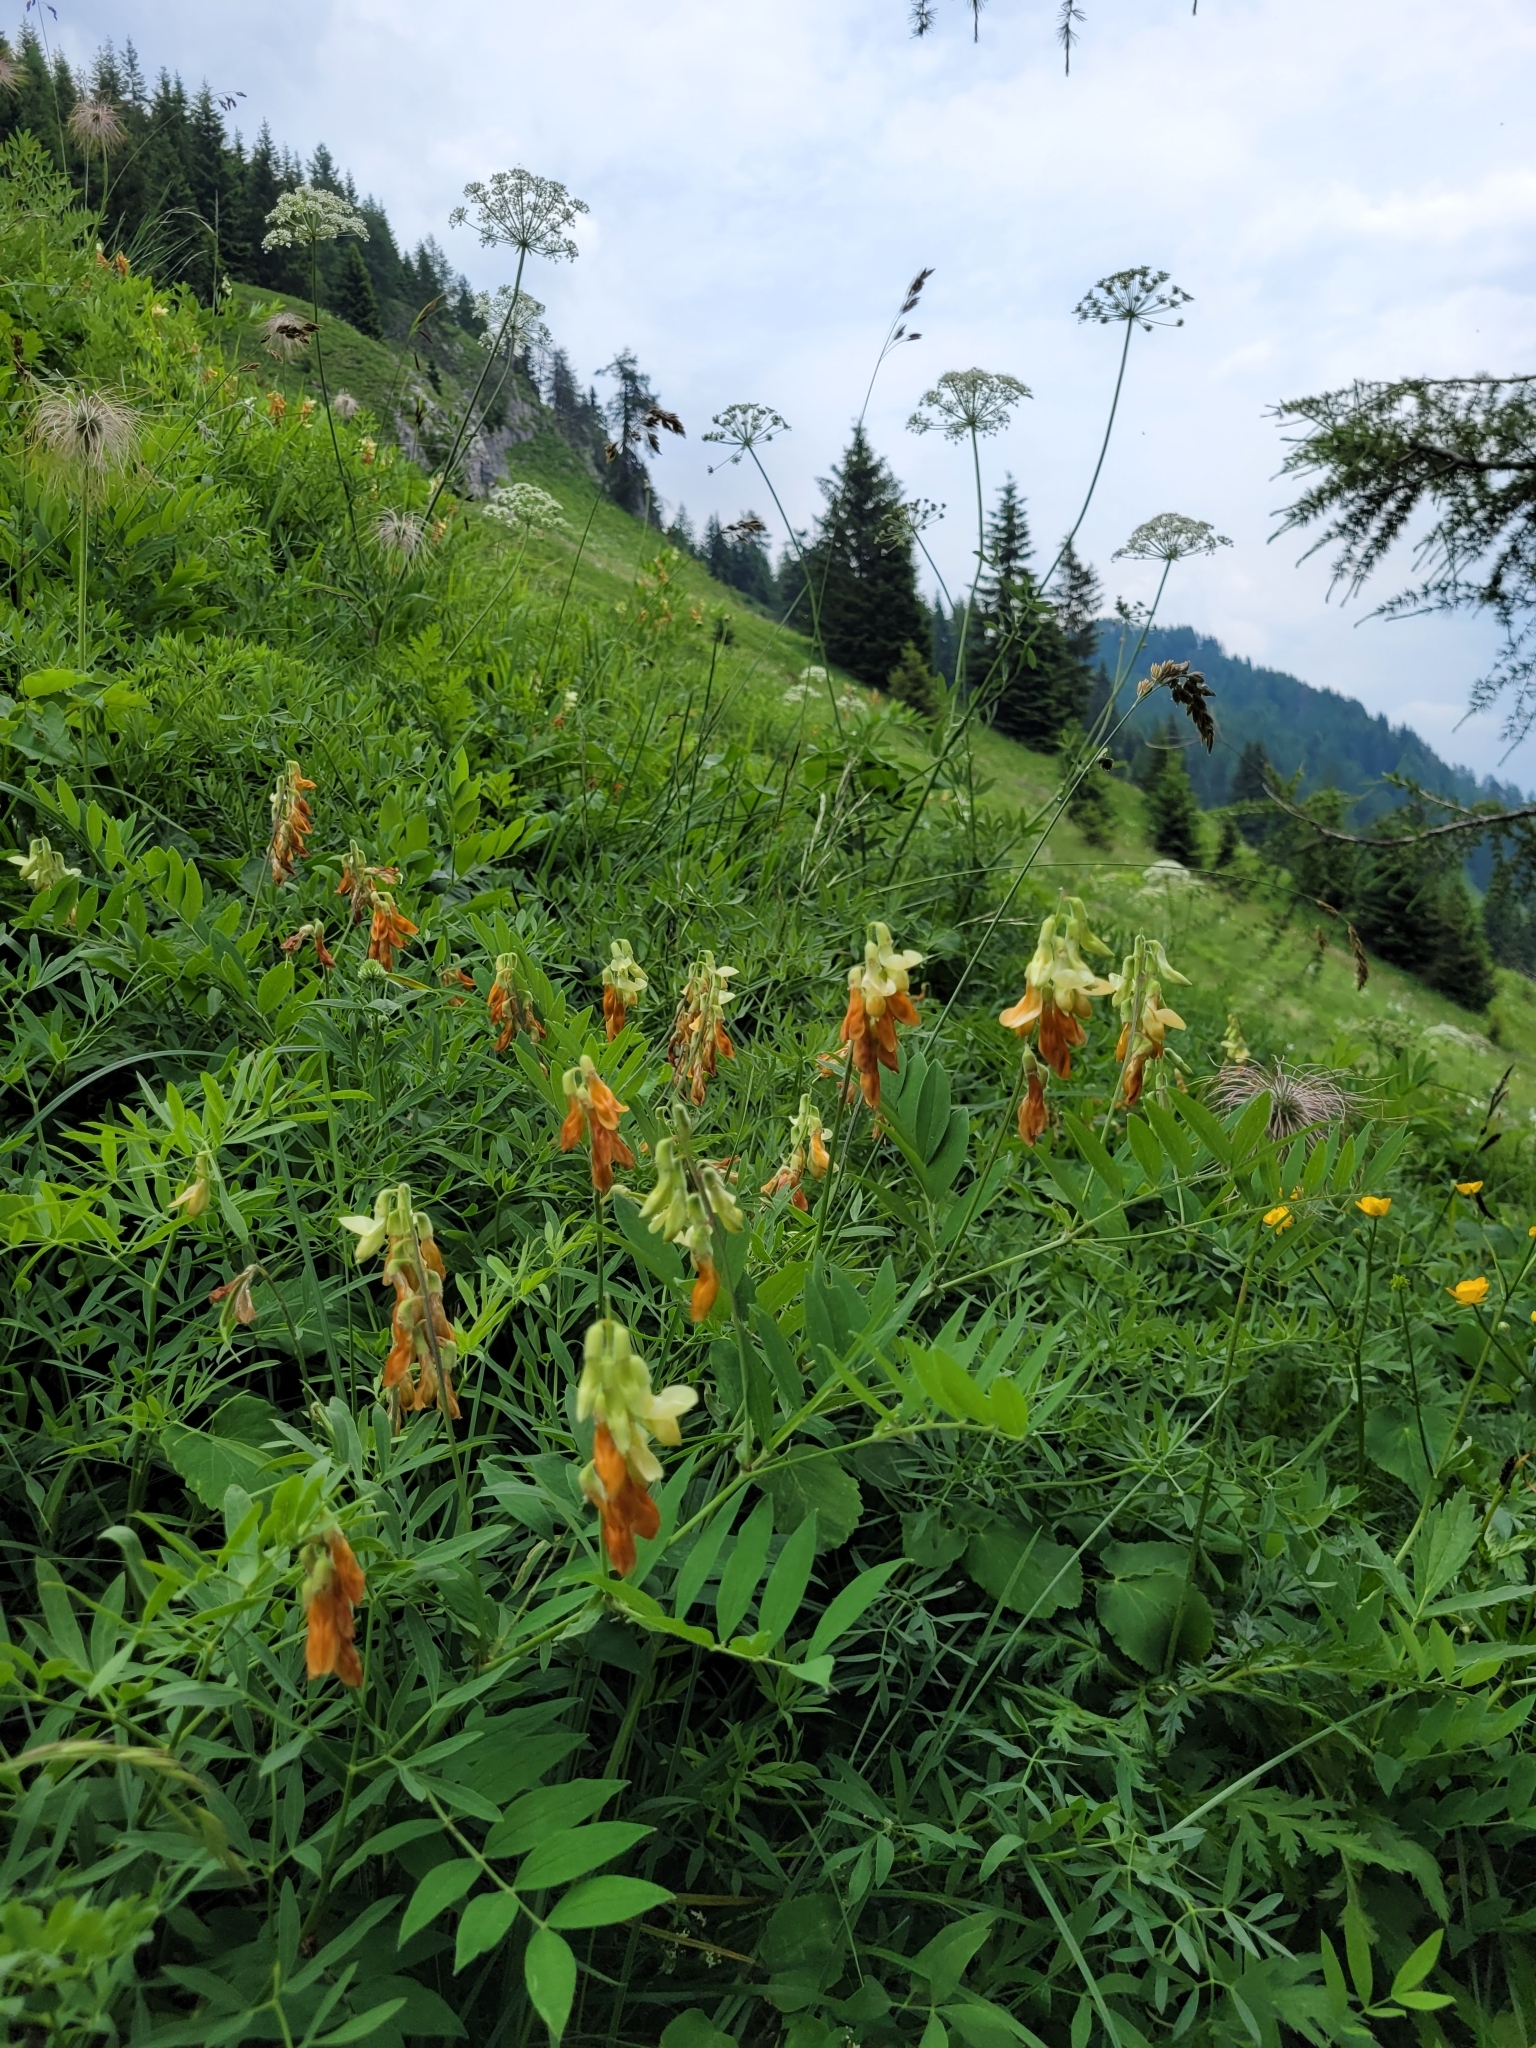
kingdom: Plantae
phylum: Tracheophyta
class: Magnoliopsida
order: Fabales
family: Fabaceae
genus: Lathyrus
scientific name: Lathyrus laevigatus
